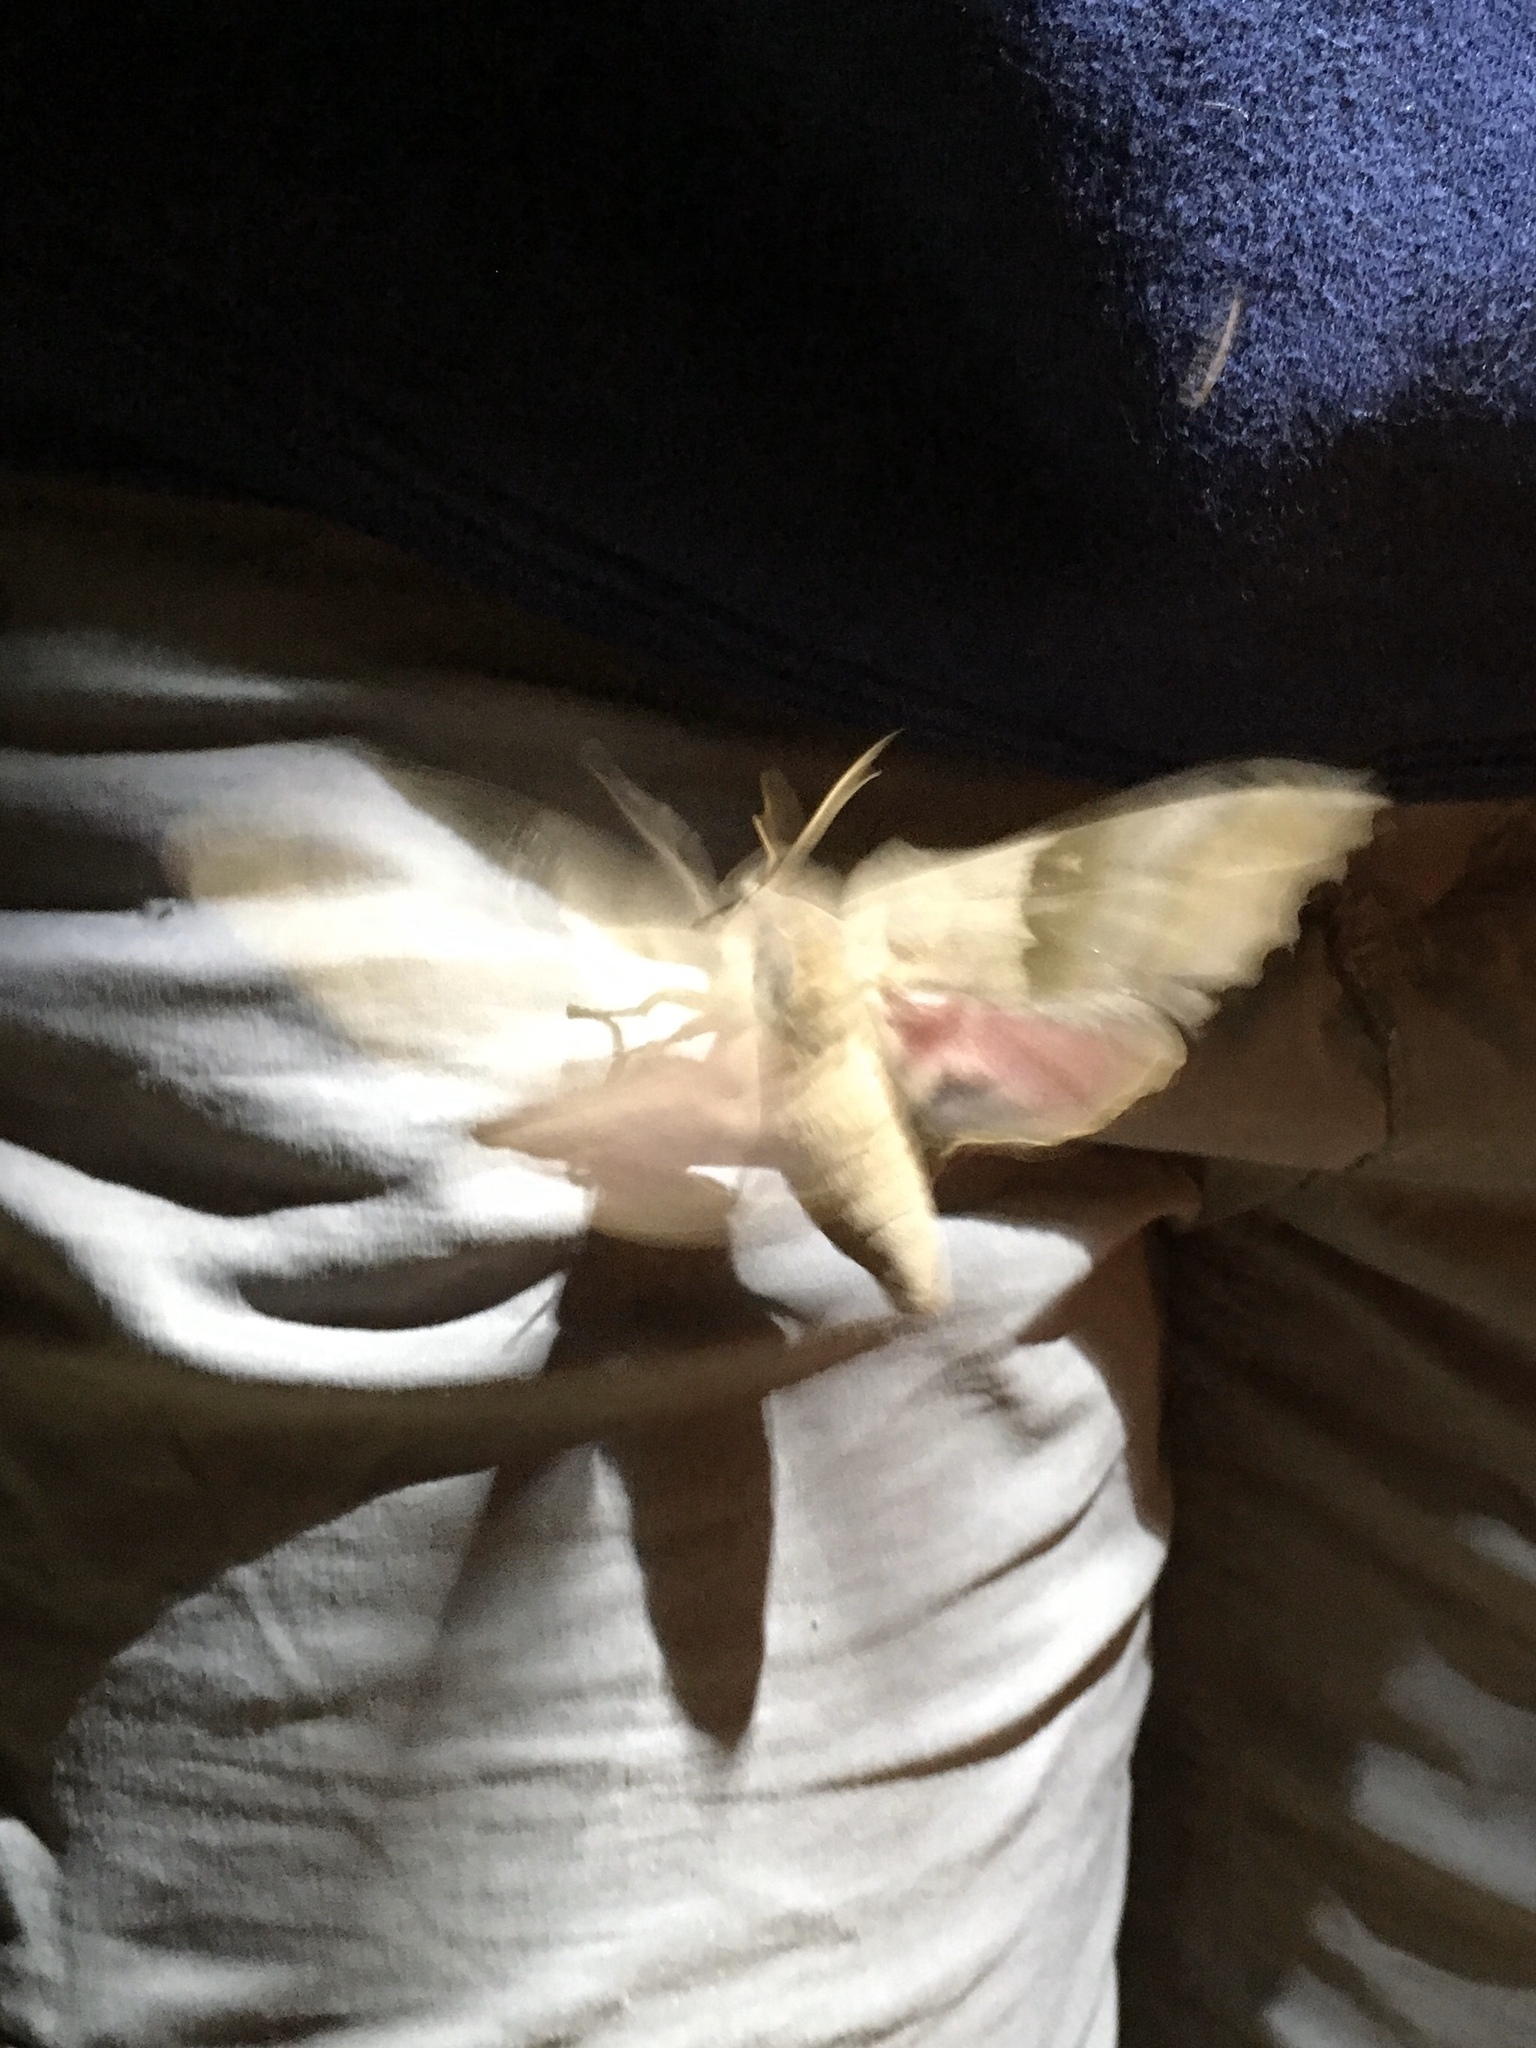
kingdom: Animalia
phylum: Arthropoda
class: Insecta
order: Lepidoptera
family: Sphingidae
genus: Pachysphinx
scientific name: Pachysphinx modesta
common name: Big poplar sphinx
